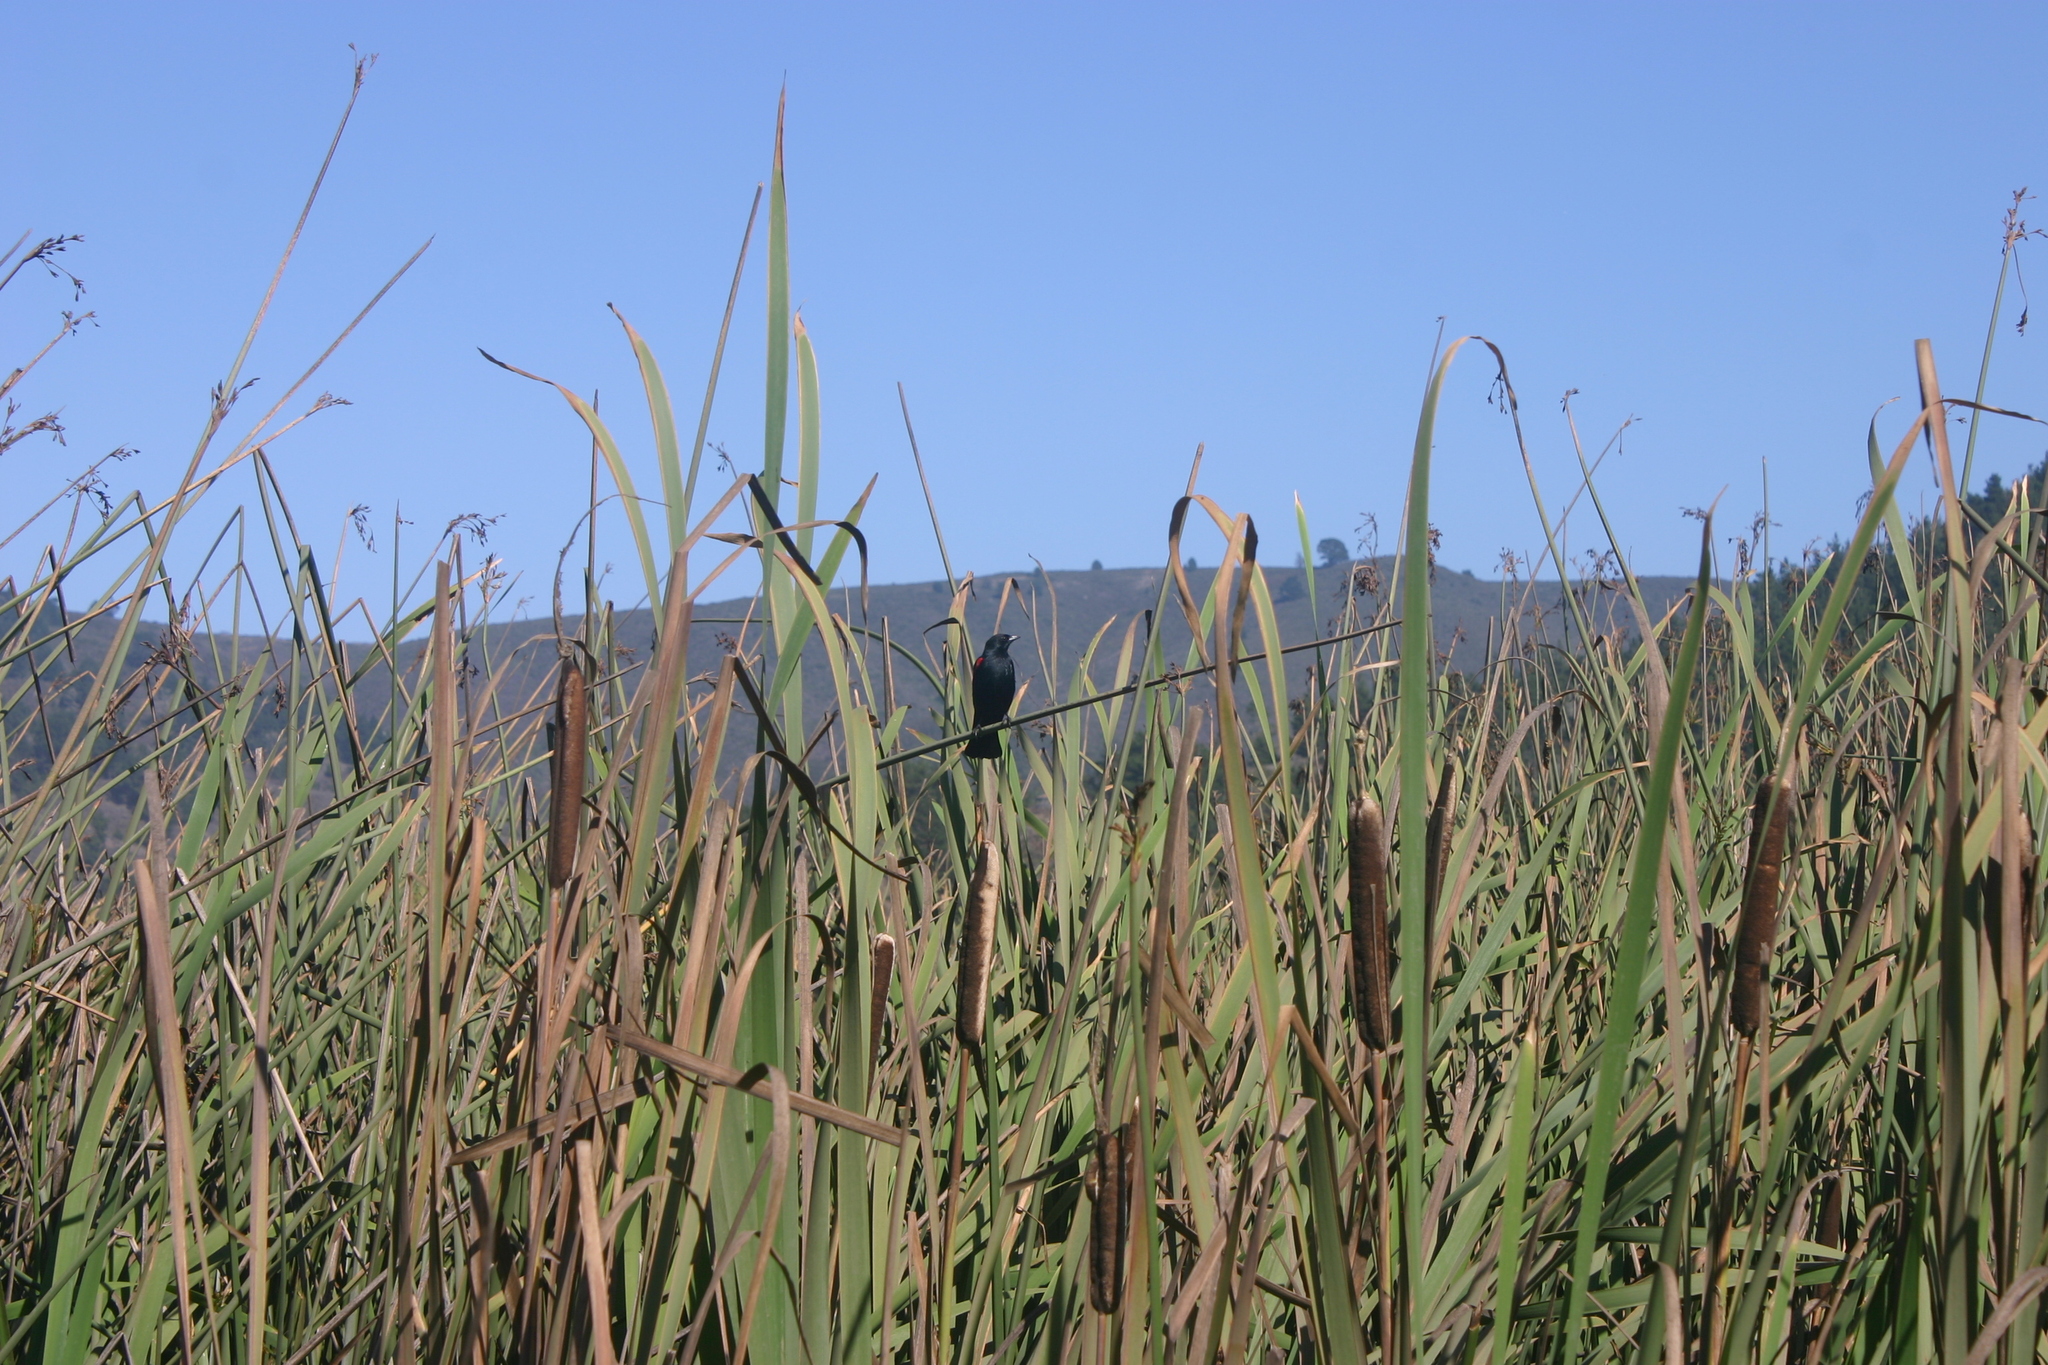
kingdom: Animalia
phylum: Chordata
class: Aves
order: Passeriformes
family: Icteridae
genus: Agelaius
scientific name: Agelaius phoeniceus
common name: Red-winged blackbird
